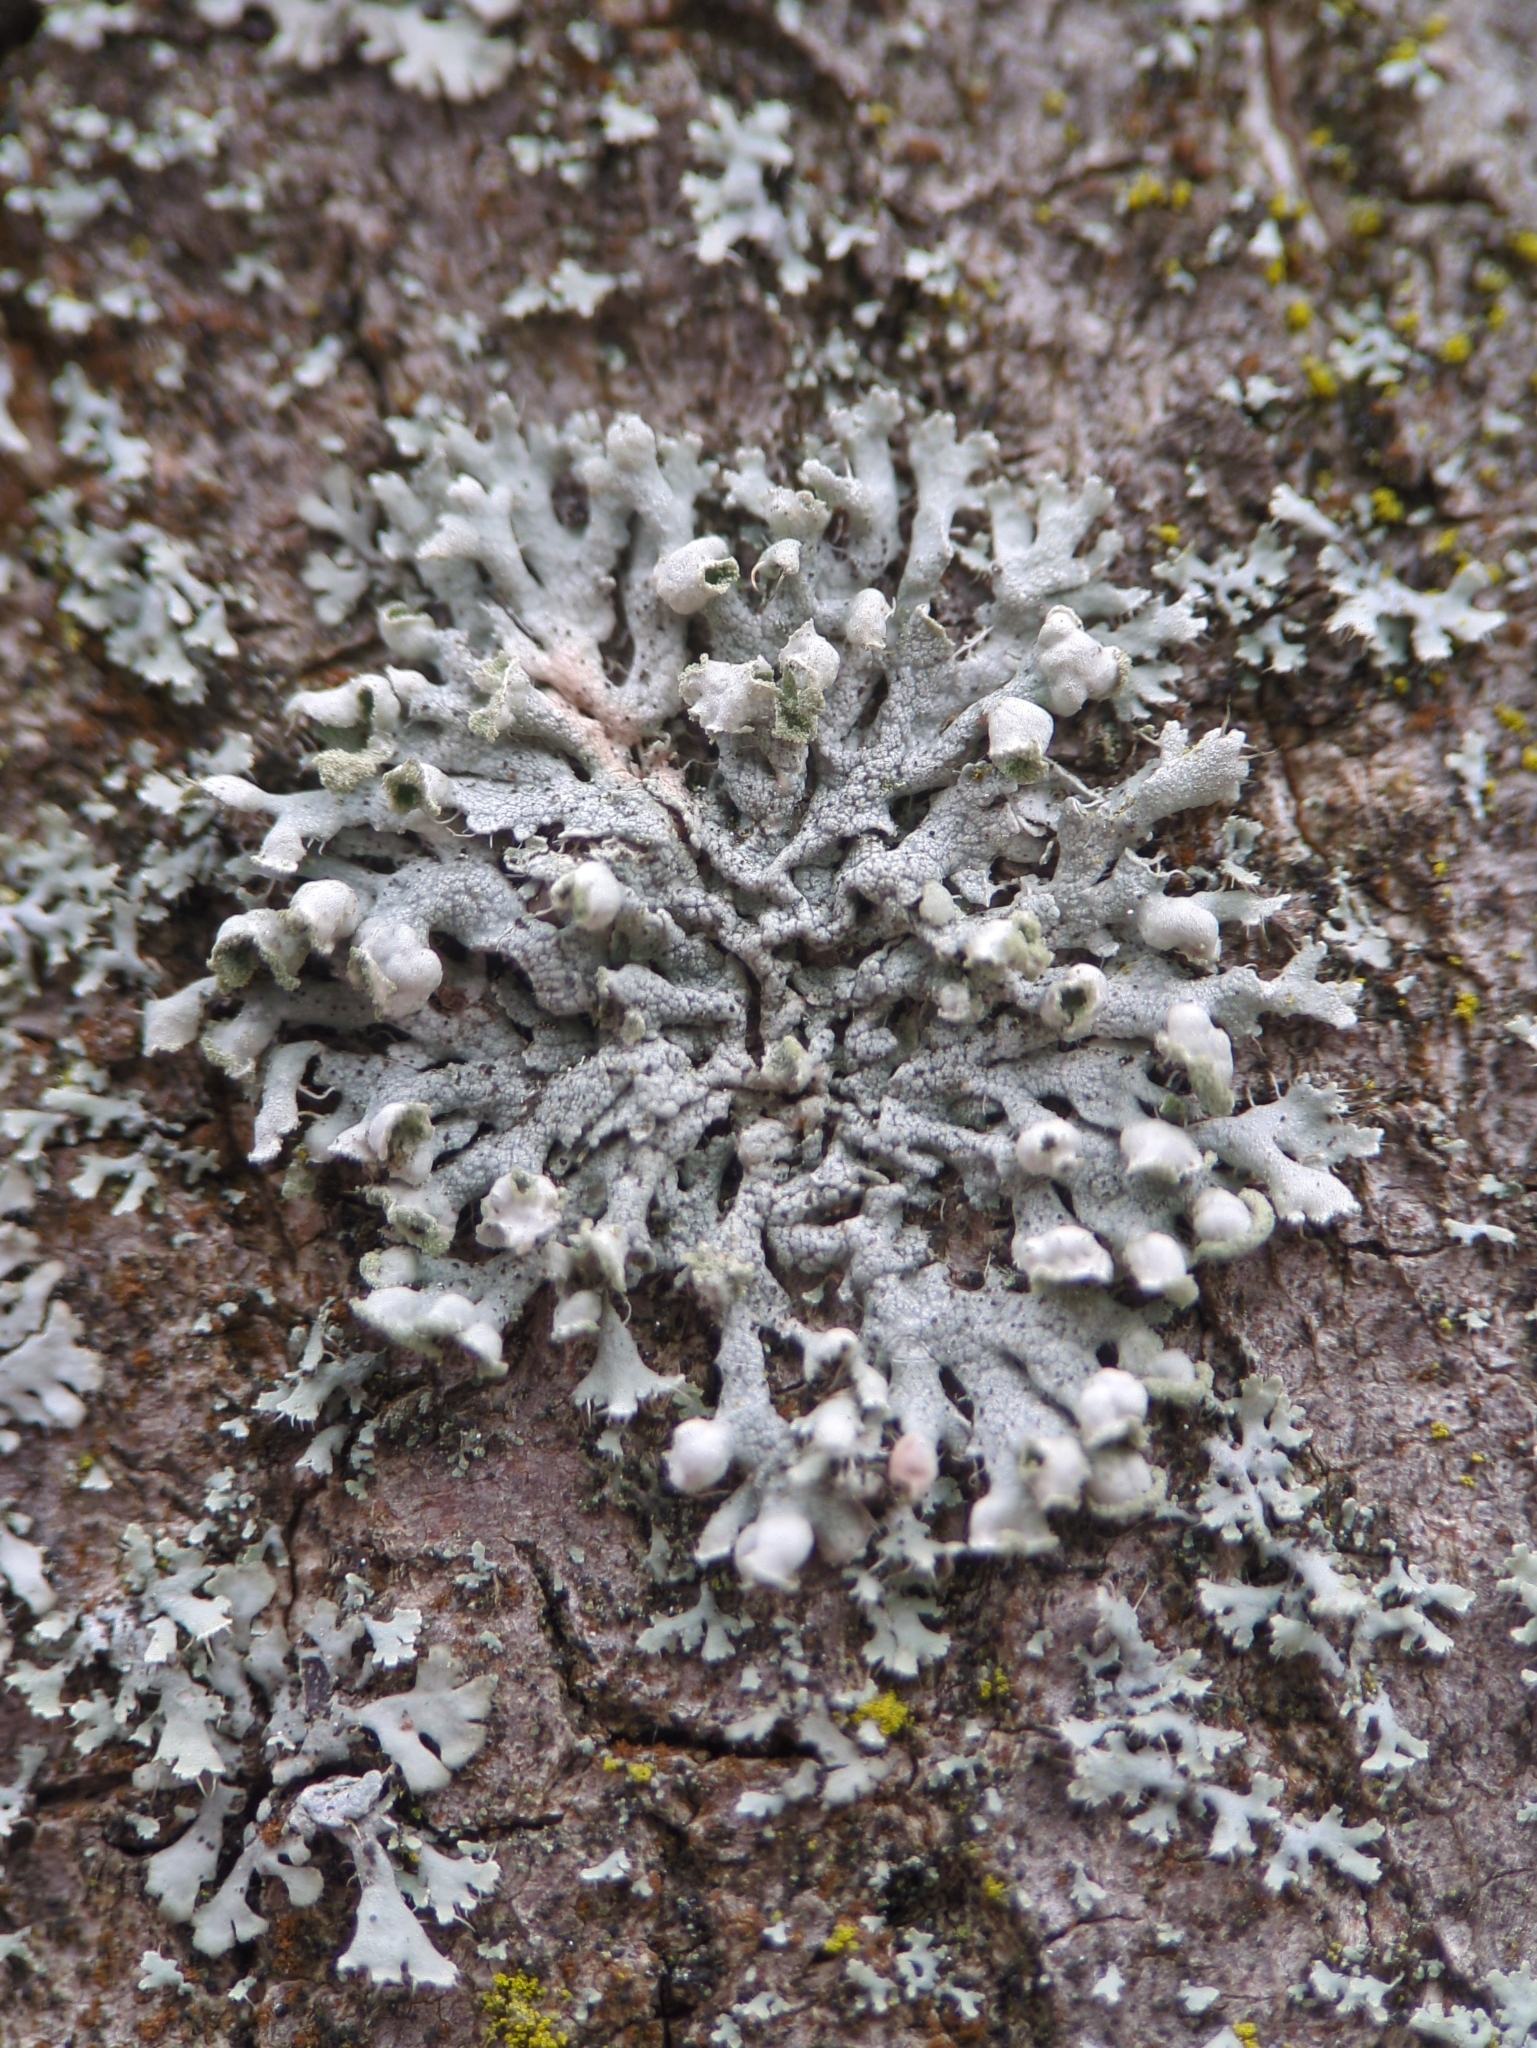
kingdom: Fungi
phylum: Ascomycota
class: Lecanoromycetes
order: Caliciales
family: Physciaceae
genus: Physcia
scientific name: Physcia adscendens
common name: Hooded rosette lichen
